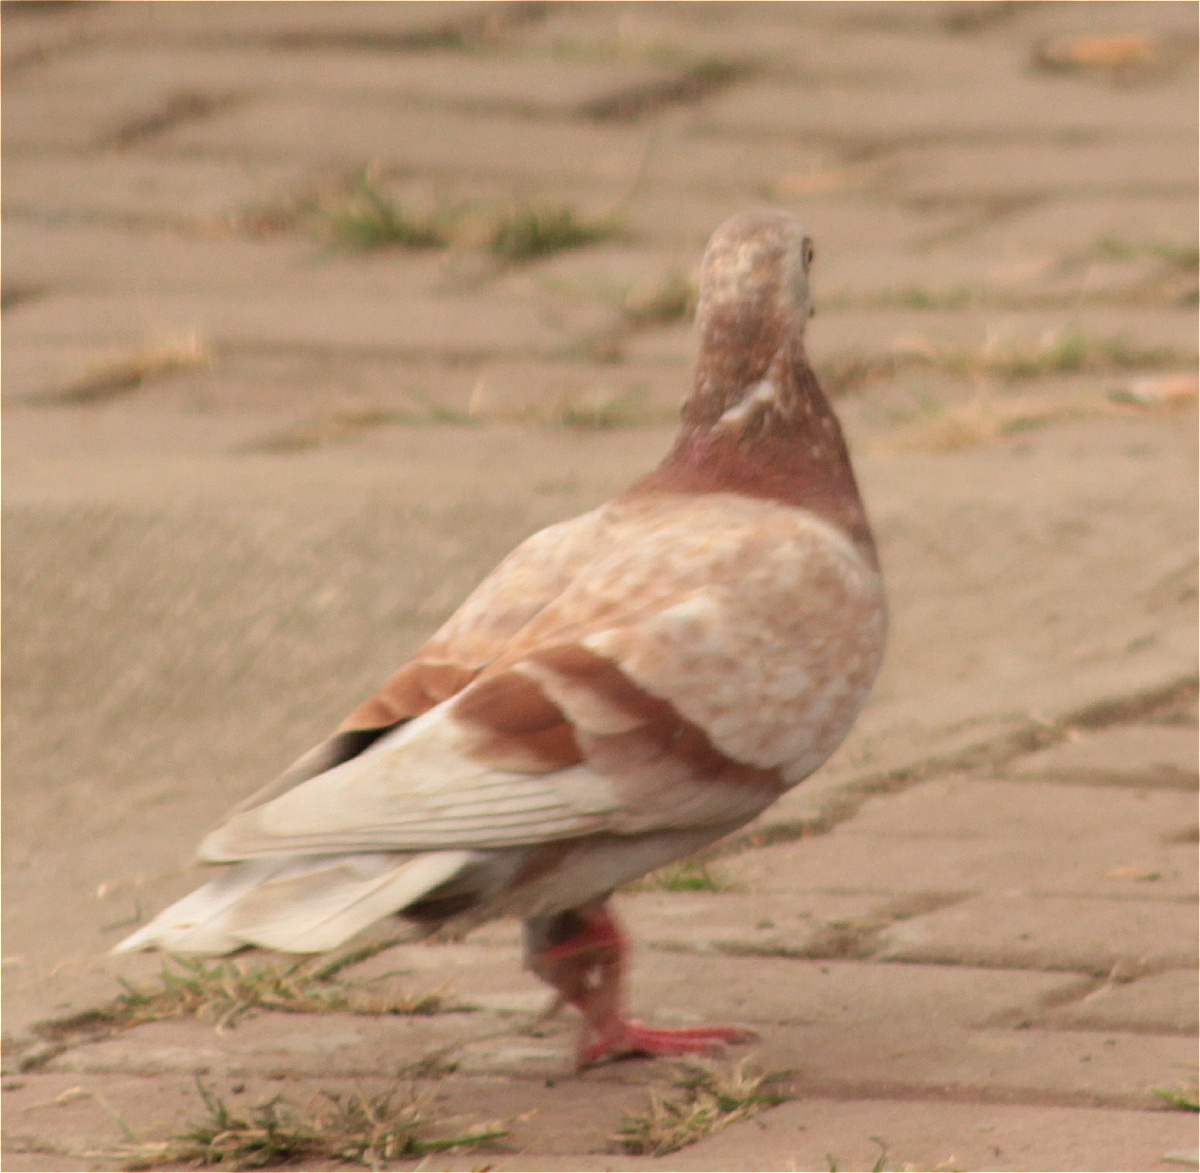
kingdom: Animalia
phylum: Chordata
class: Aves
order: Columbiformes
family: Columbidae
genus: Columba
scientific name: Columba livia
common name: Rock pigeon
